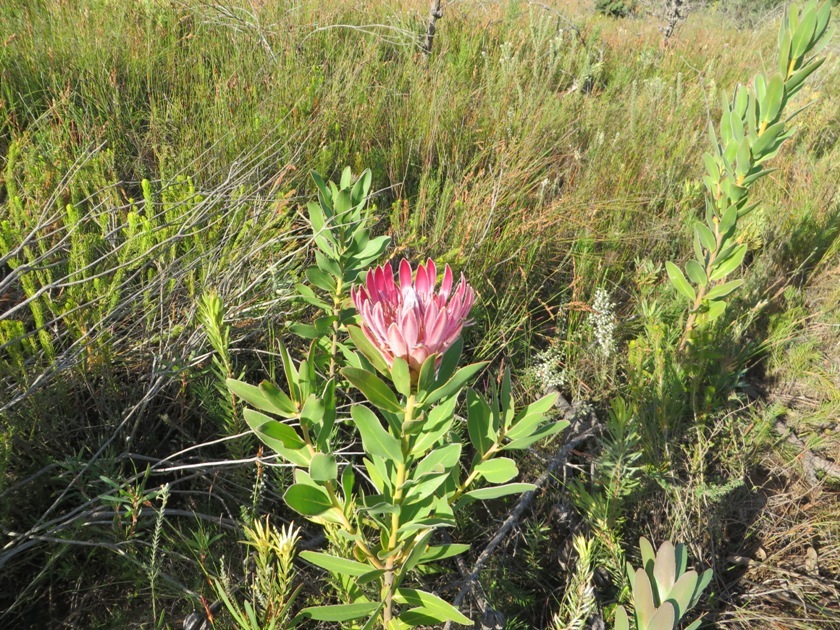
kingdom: Plantae
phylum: Tracheophyta
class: Magnoliopsida
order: Proteales
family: Proteaceae
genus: Protea
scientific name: Protea compacta
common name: Bot river protea
